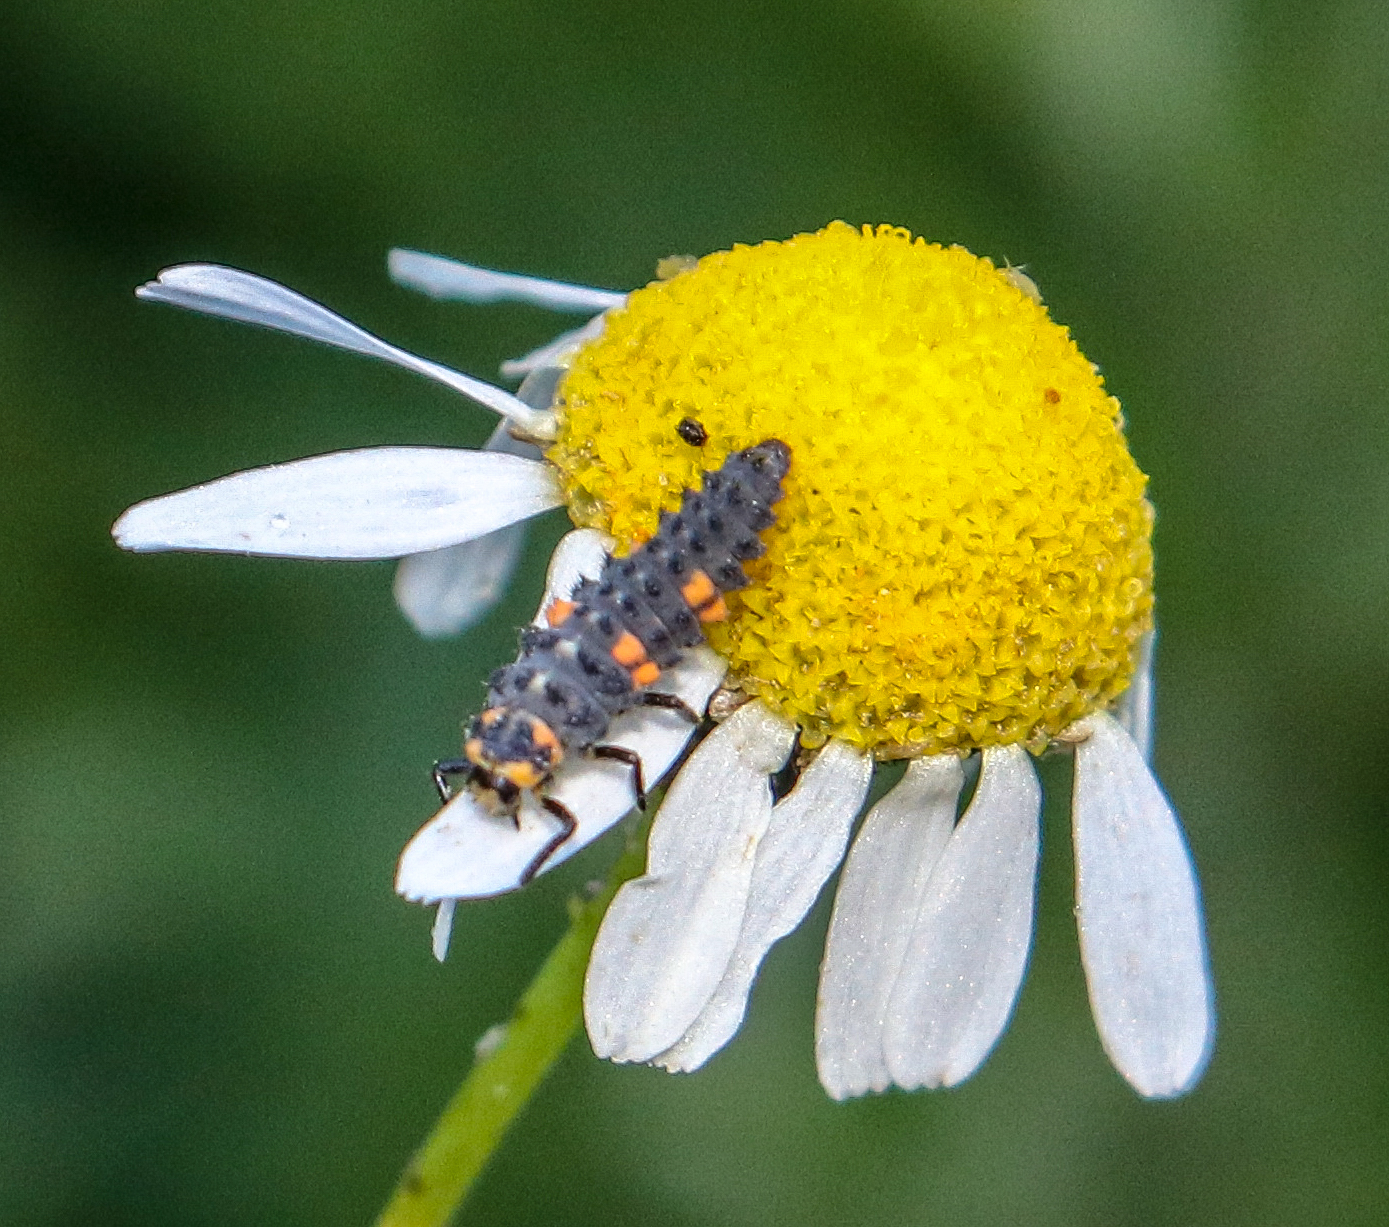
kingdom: Animalia
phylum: Arthropoda
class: Insecta
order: Coleoptera
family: Coccinellidae
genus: Coccinella
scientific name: Coccinella septempunctata
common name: Sevenspotted lady beetle
